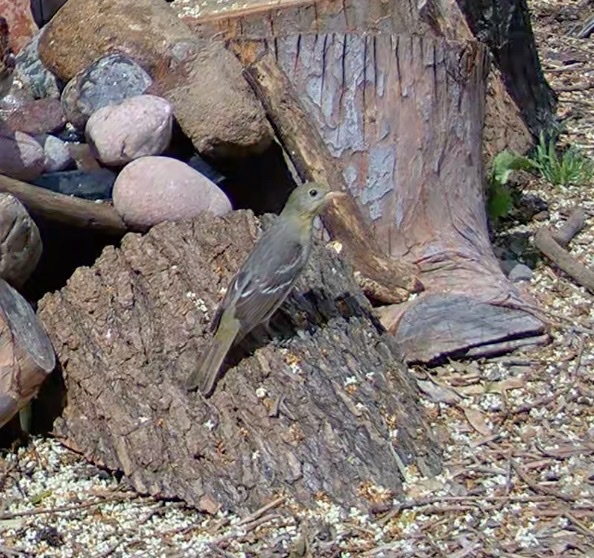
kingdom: Animalia
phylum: Chordata
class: Aves
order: Passeriformes
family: Cardinalidae
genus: Piranga
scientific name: Piranga ludoviciana
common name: Western tanager
